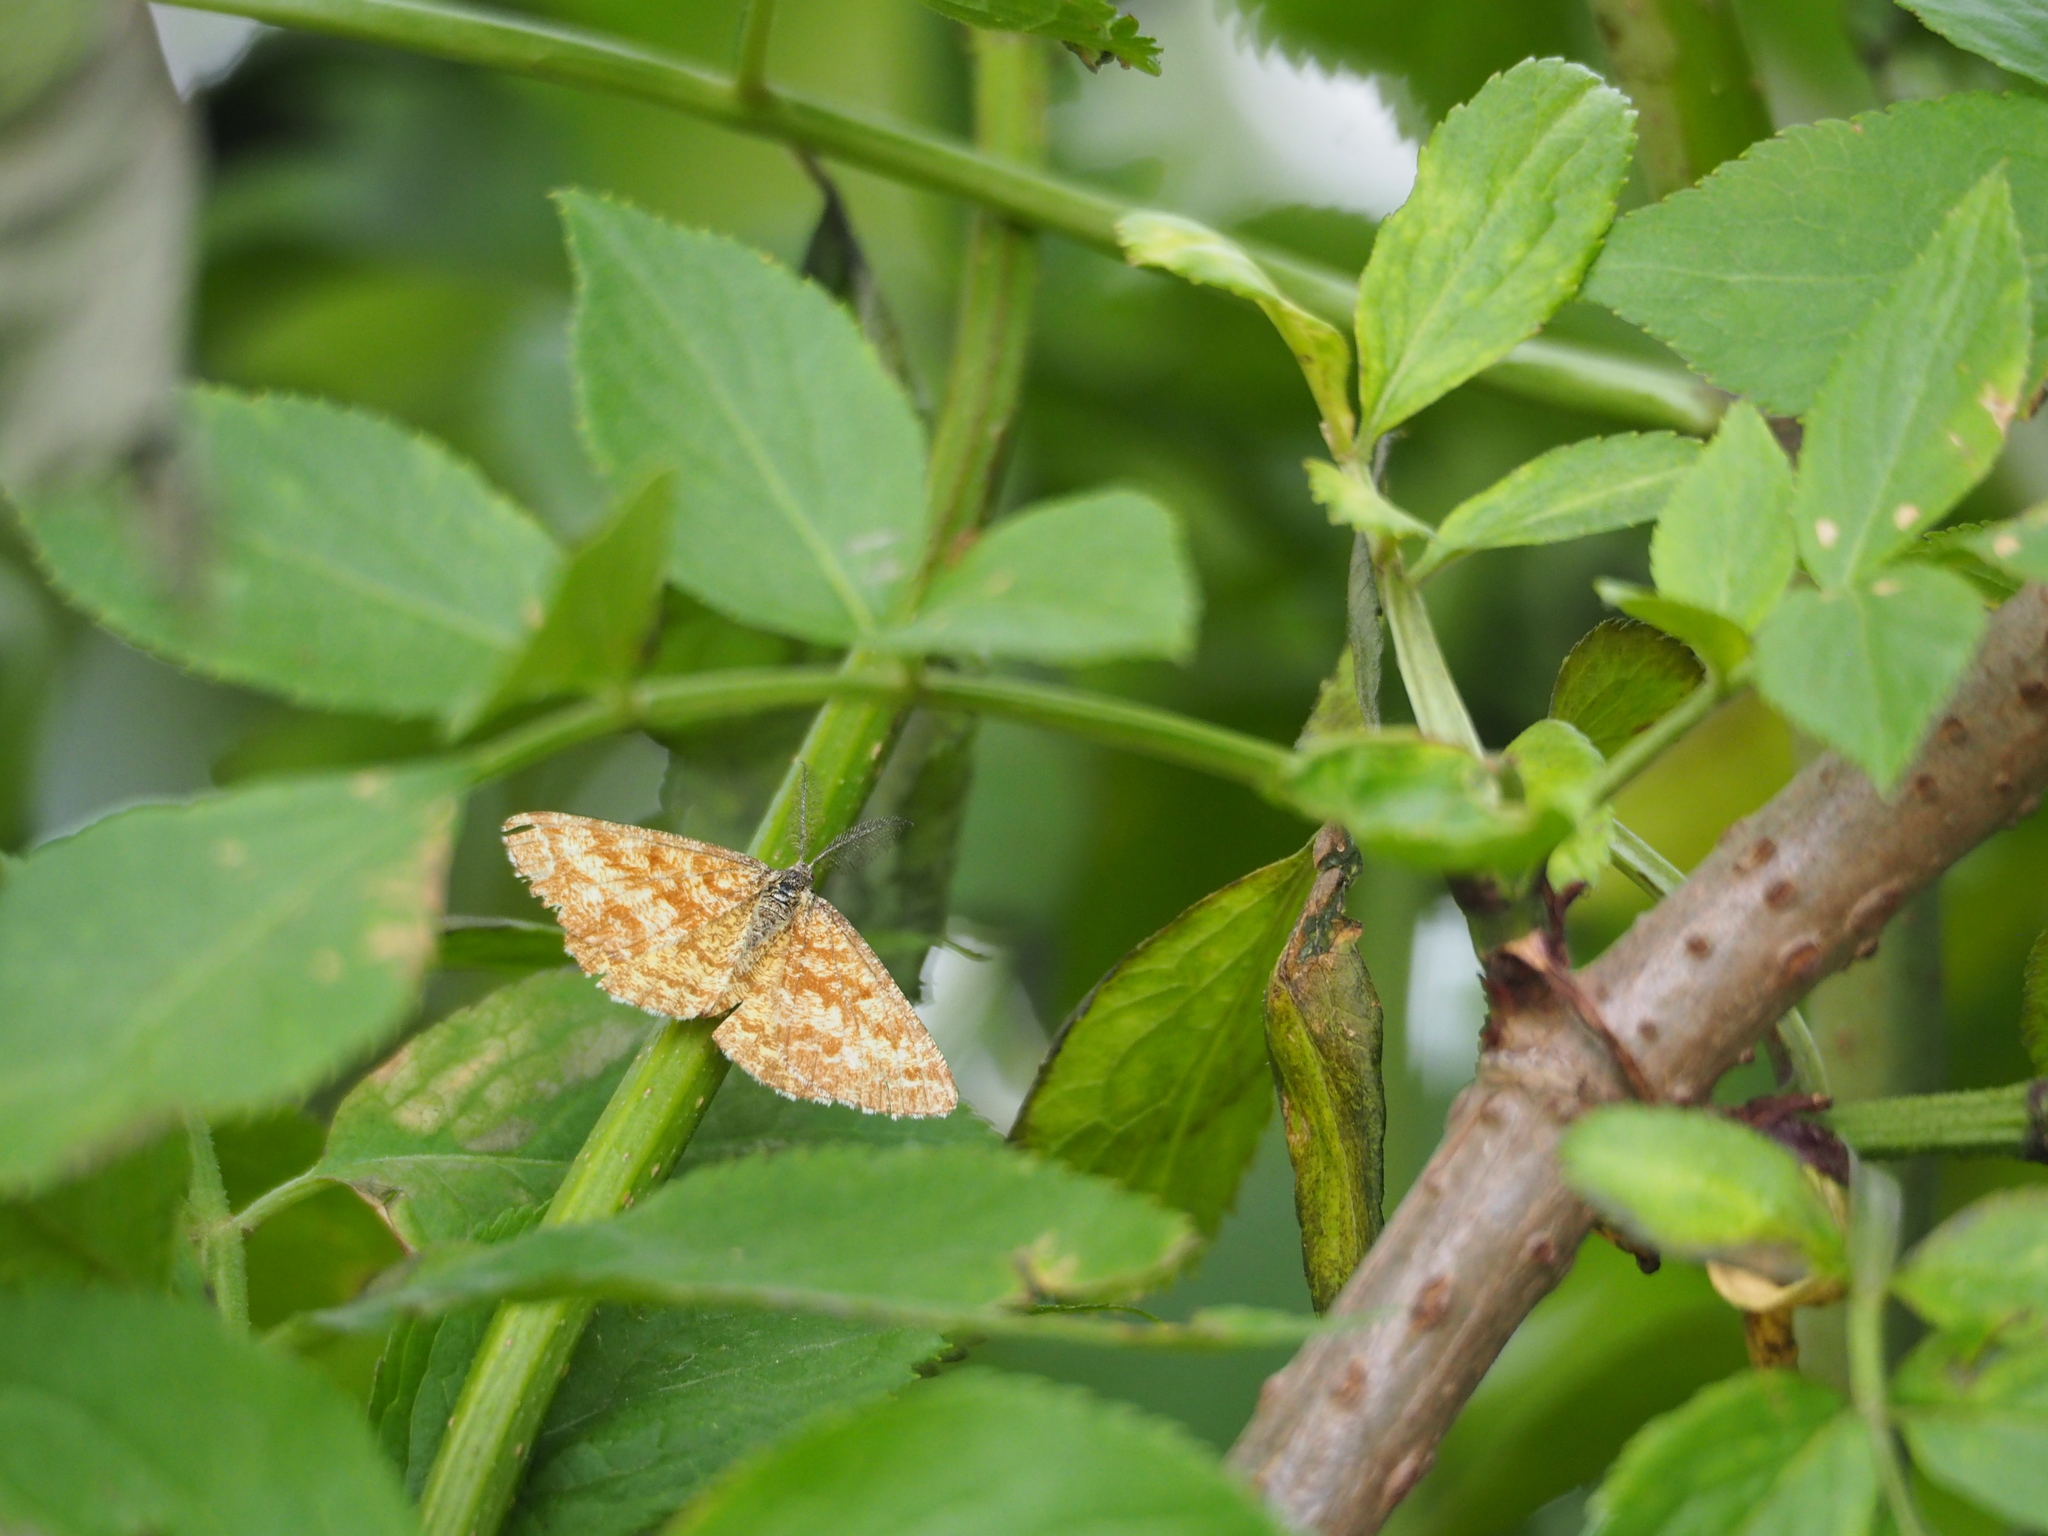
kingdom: Animalia
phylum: Arthropoda
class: Insecta
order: Lepidoptera
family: Geometridae
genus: Ematurga
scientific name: Ematurga atomaria
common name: Common heath
